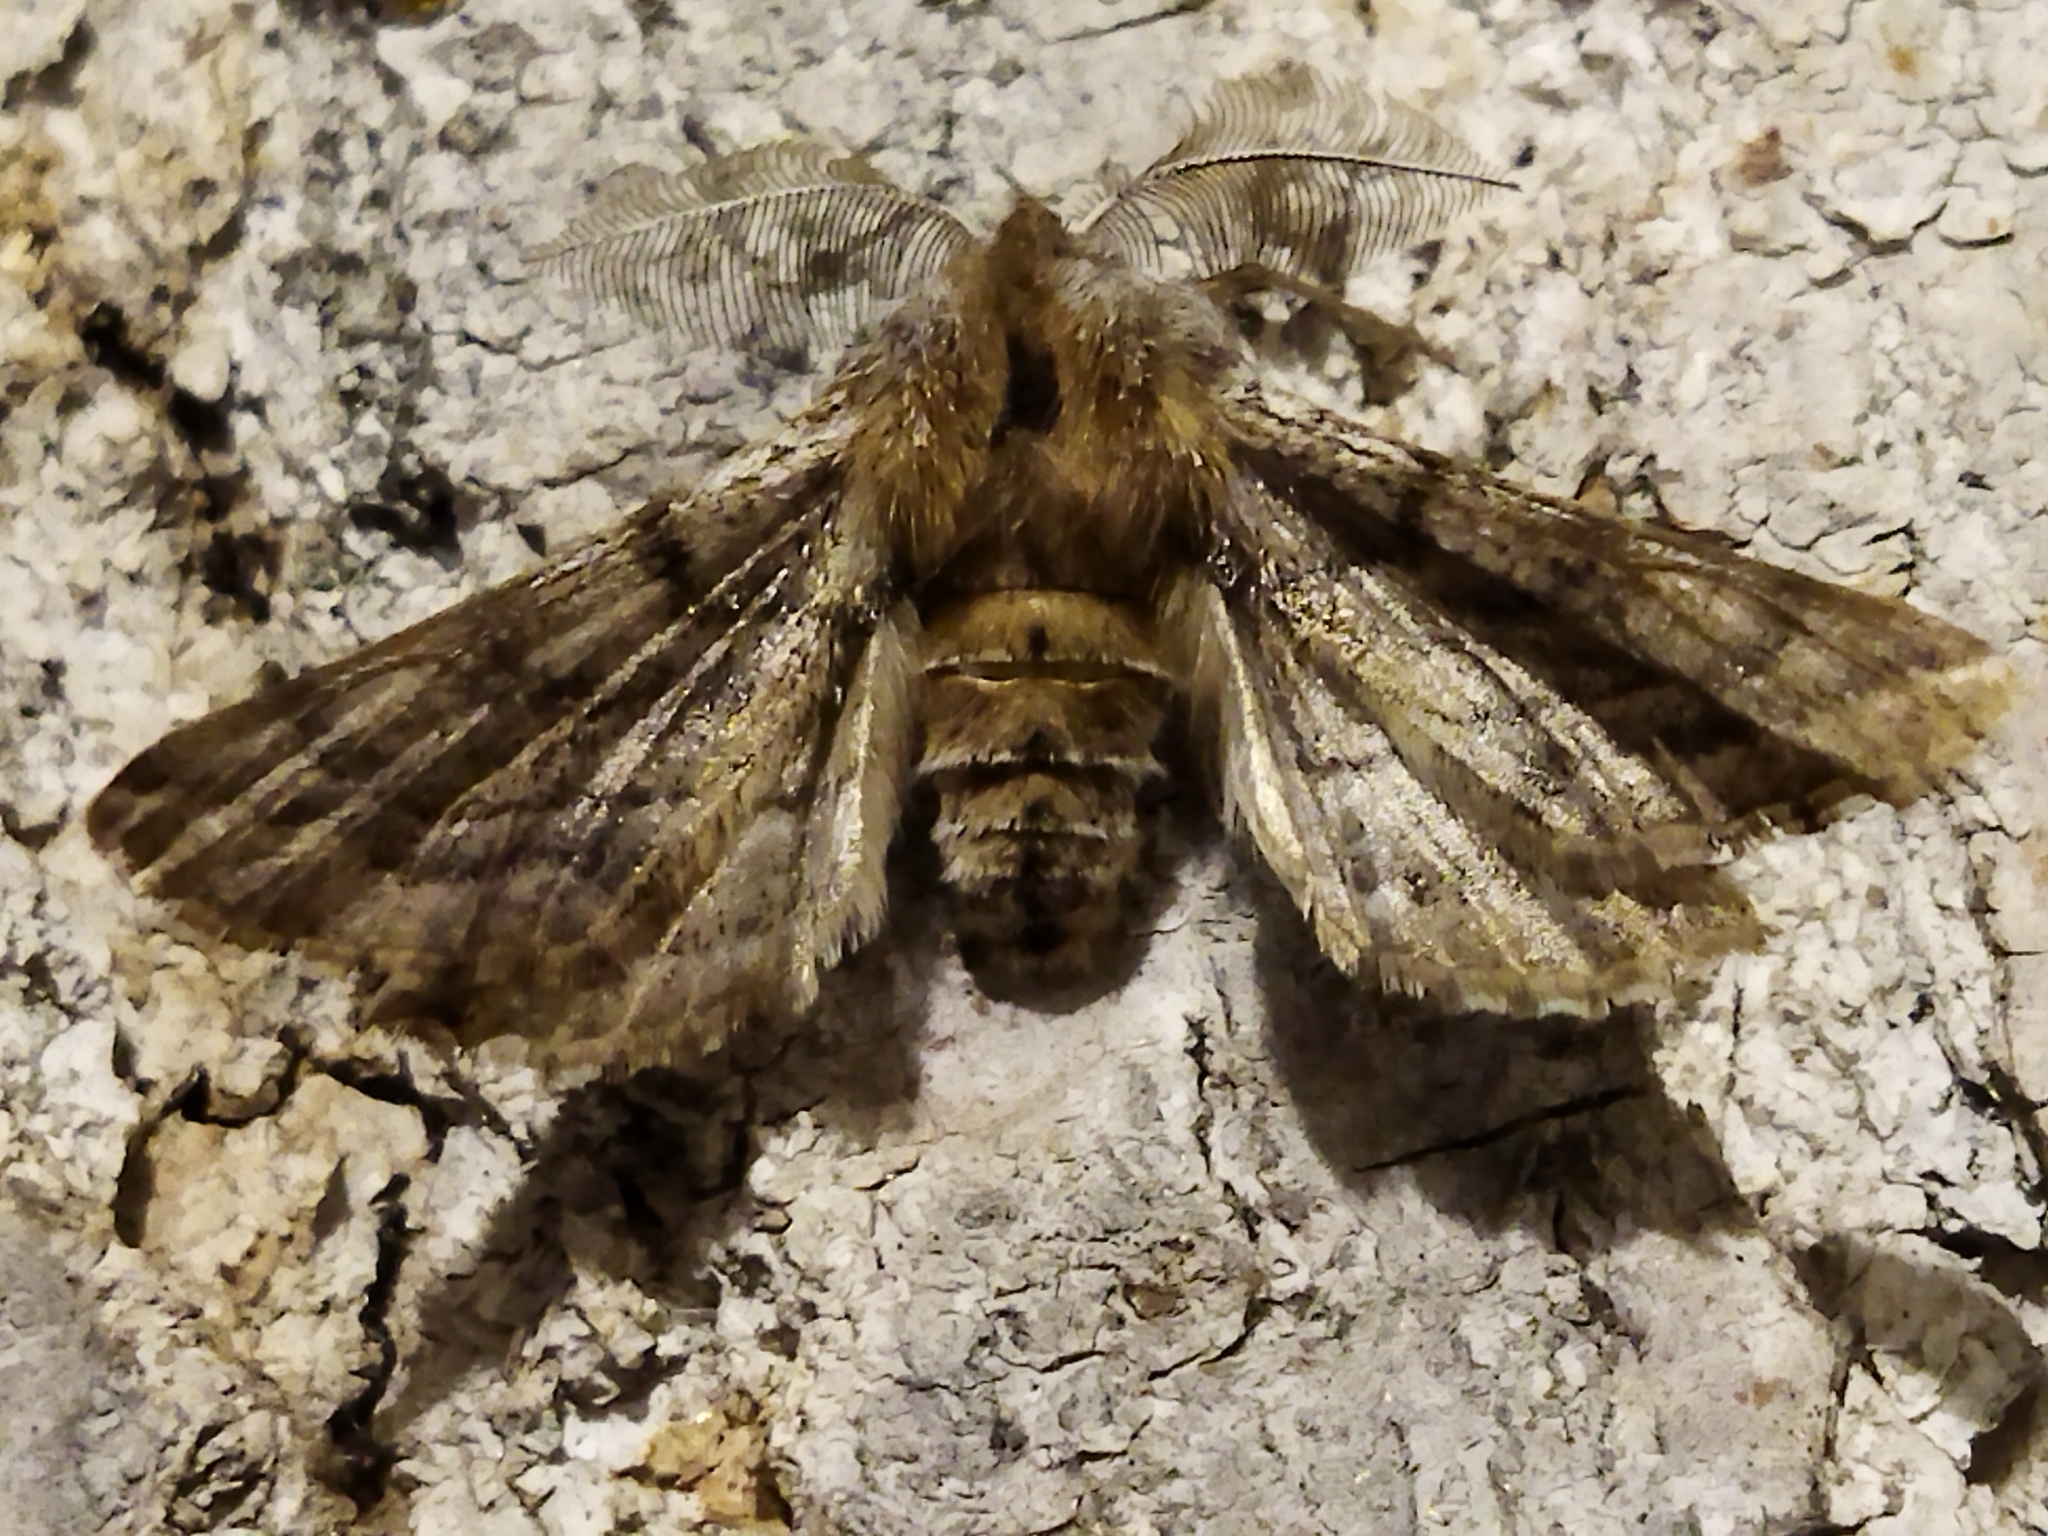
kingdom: Animalia
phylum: Arthropoda
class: Insecta
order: Lepidoptera
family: Geometridae
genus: Apochima
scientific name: Apochima flabellaria
